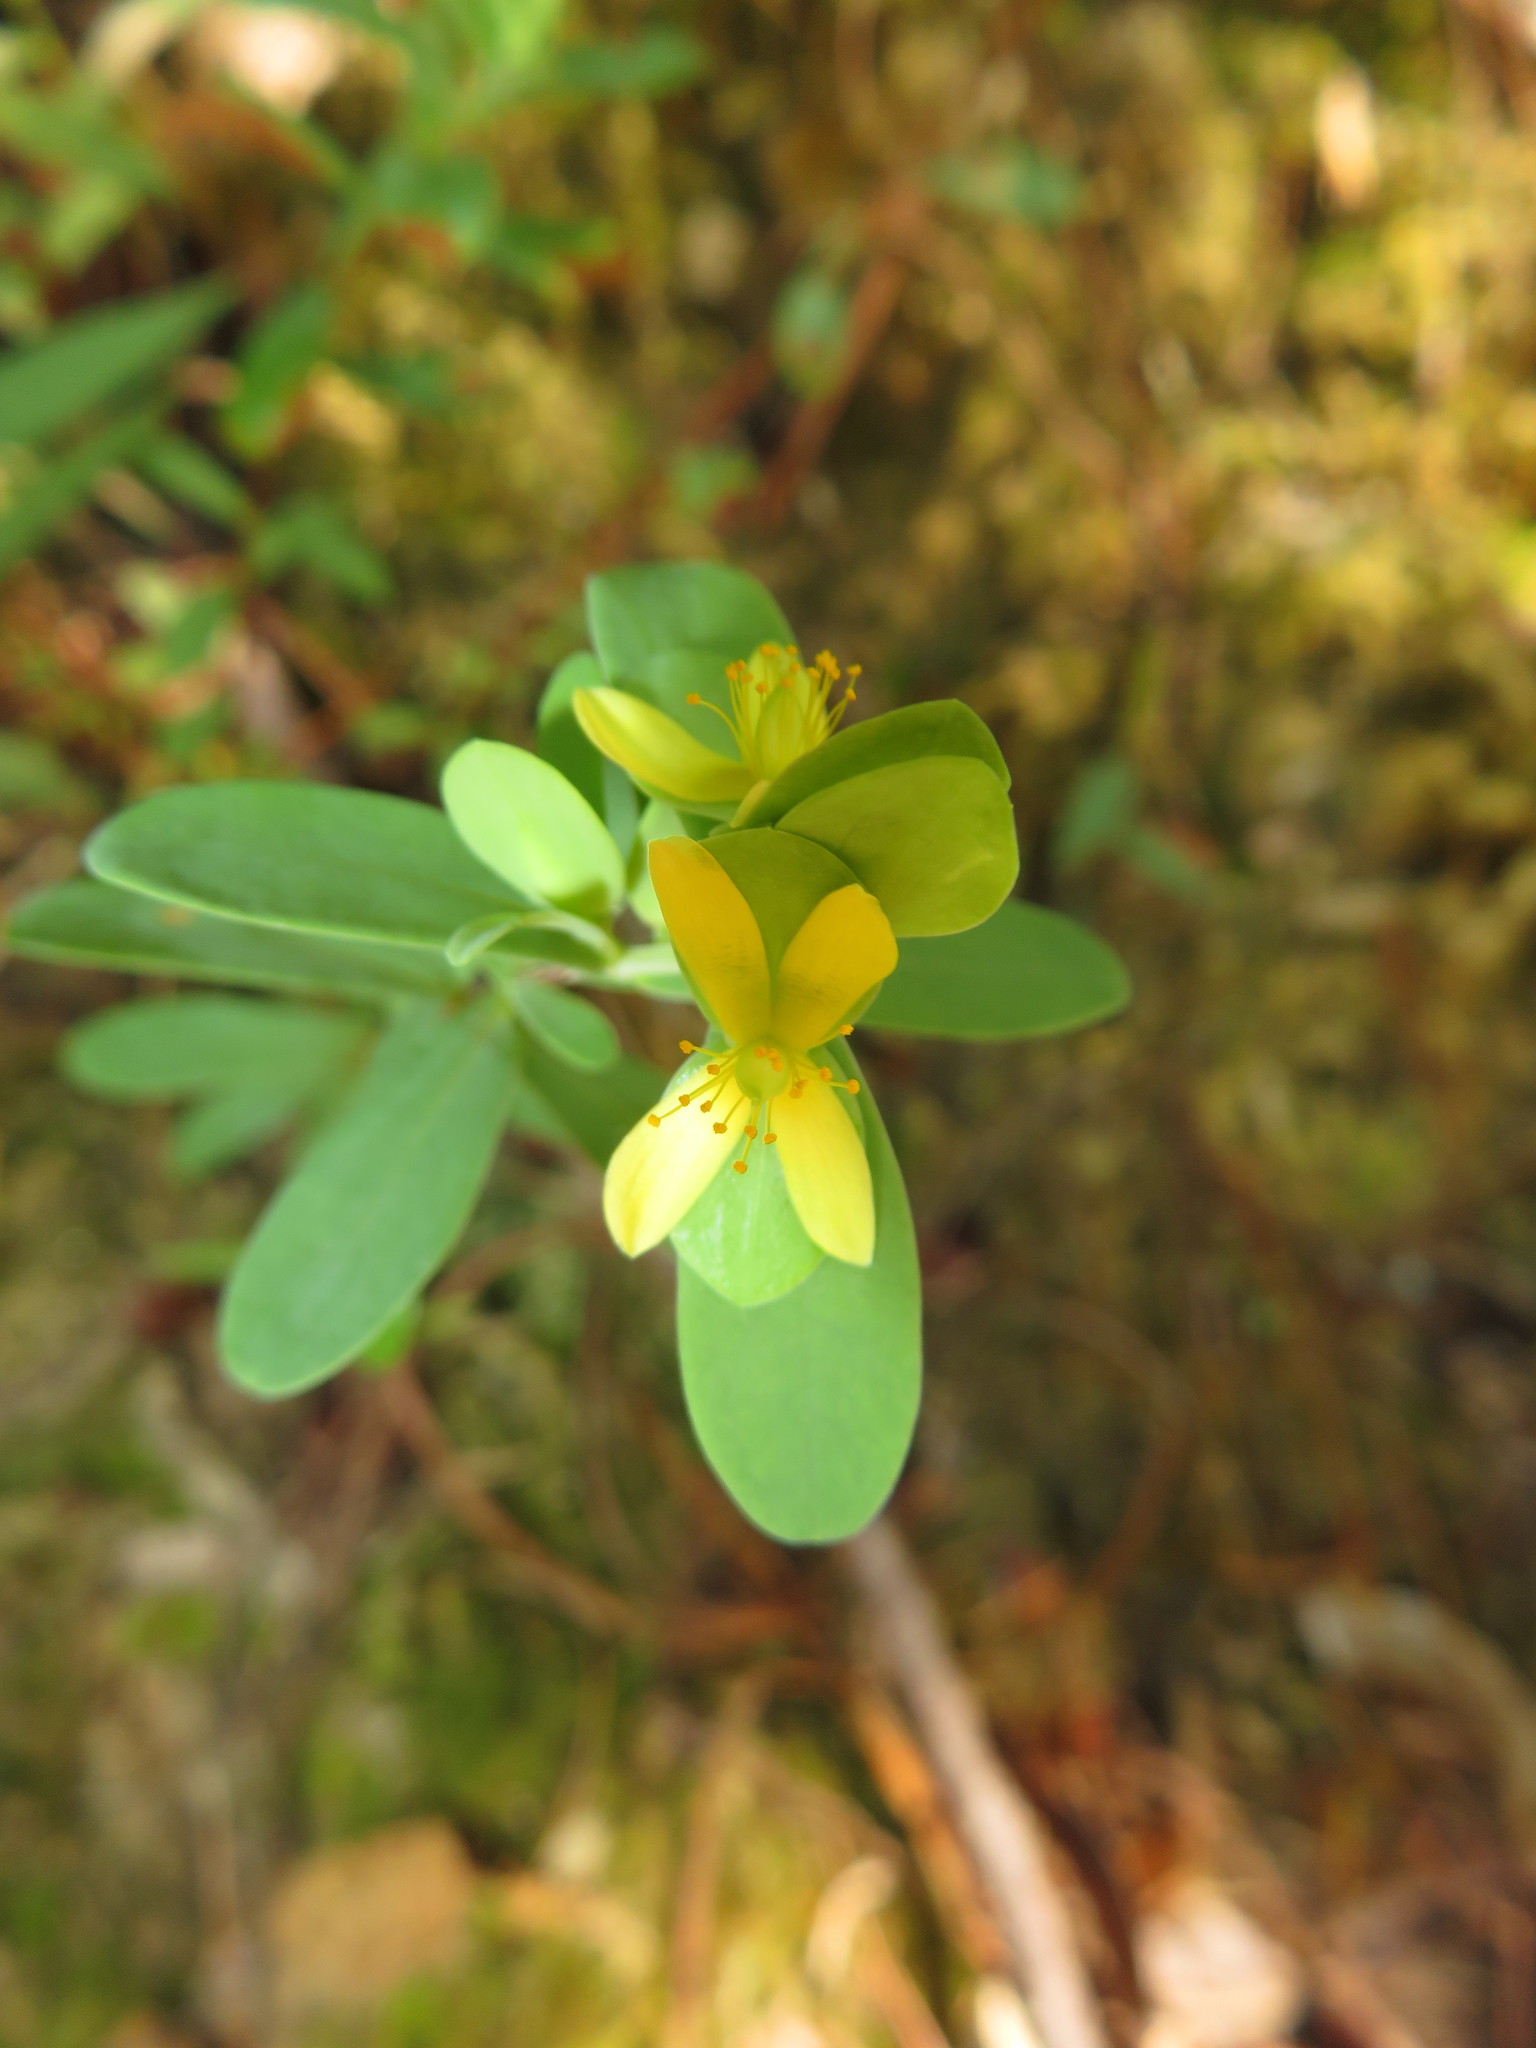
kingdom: Plantae
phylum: Tracheophyta
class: Magnoliopsida
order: Malpighiales
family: Hypericaceae
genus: Hypericum
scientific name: Hypericum hypericoides
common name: St. andrew's cross
